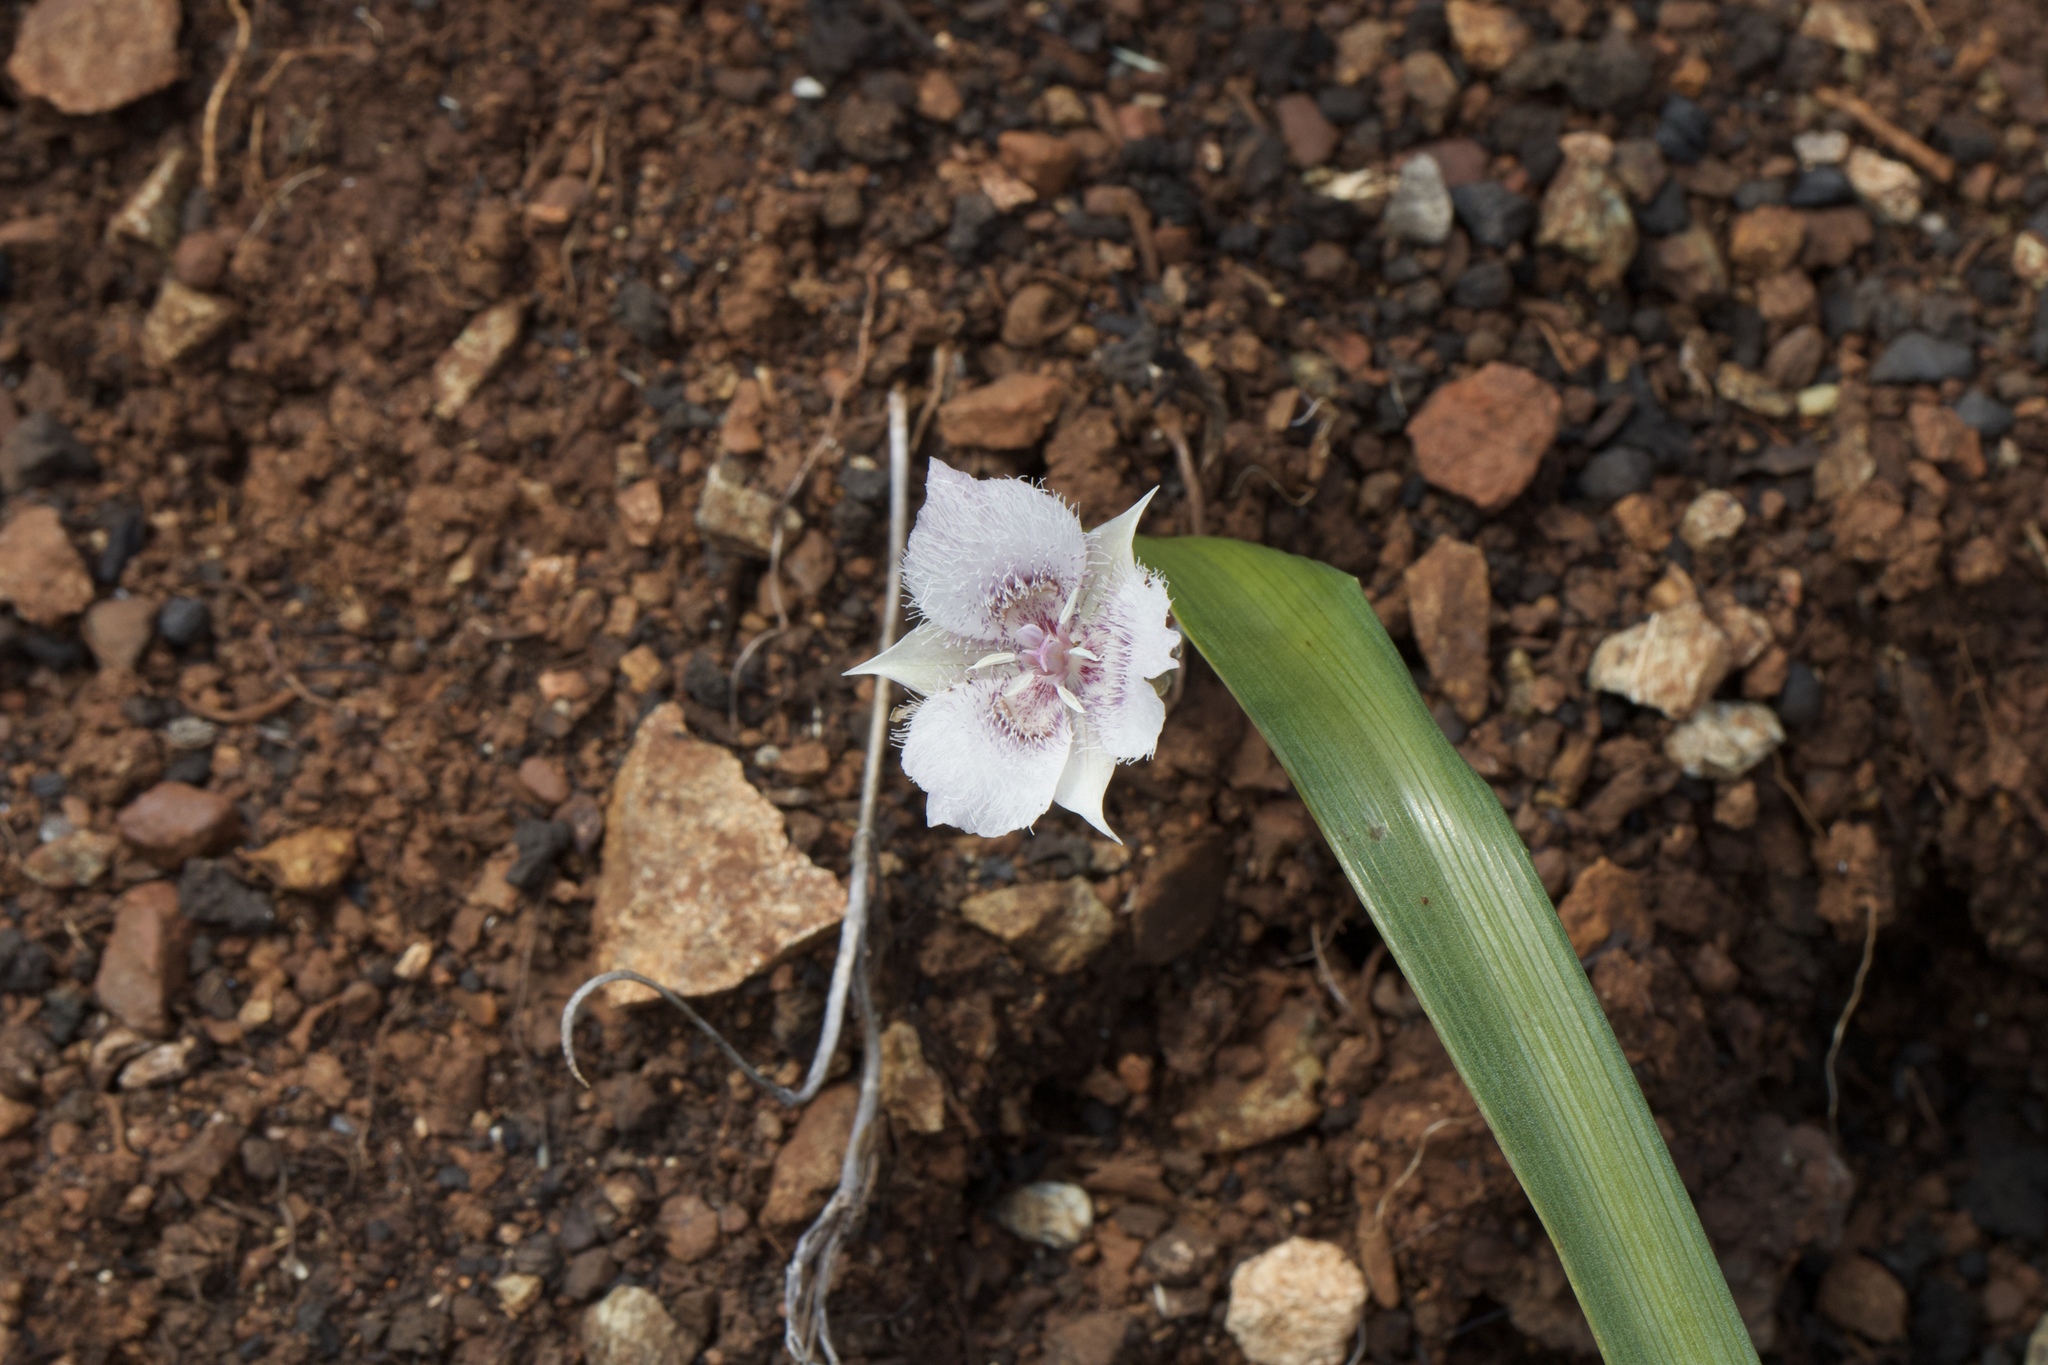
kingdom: Plantae
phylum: Tracheophyta
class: Liliopsida
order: Liliales
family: Liliaceae
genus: Calochortus
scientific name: Calochortus tolmiei
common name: Pussy-ears
